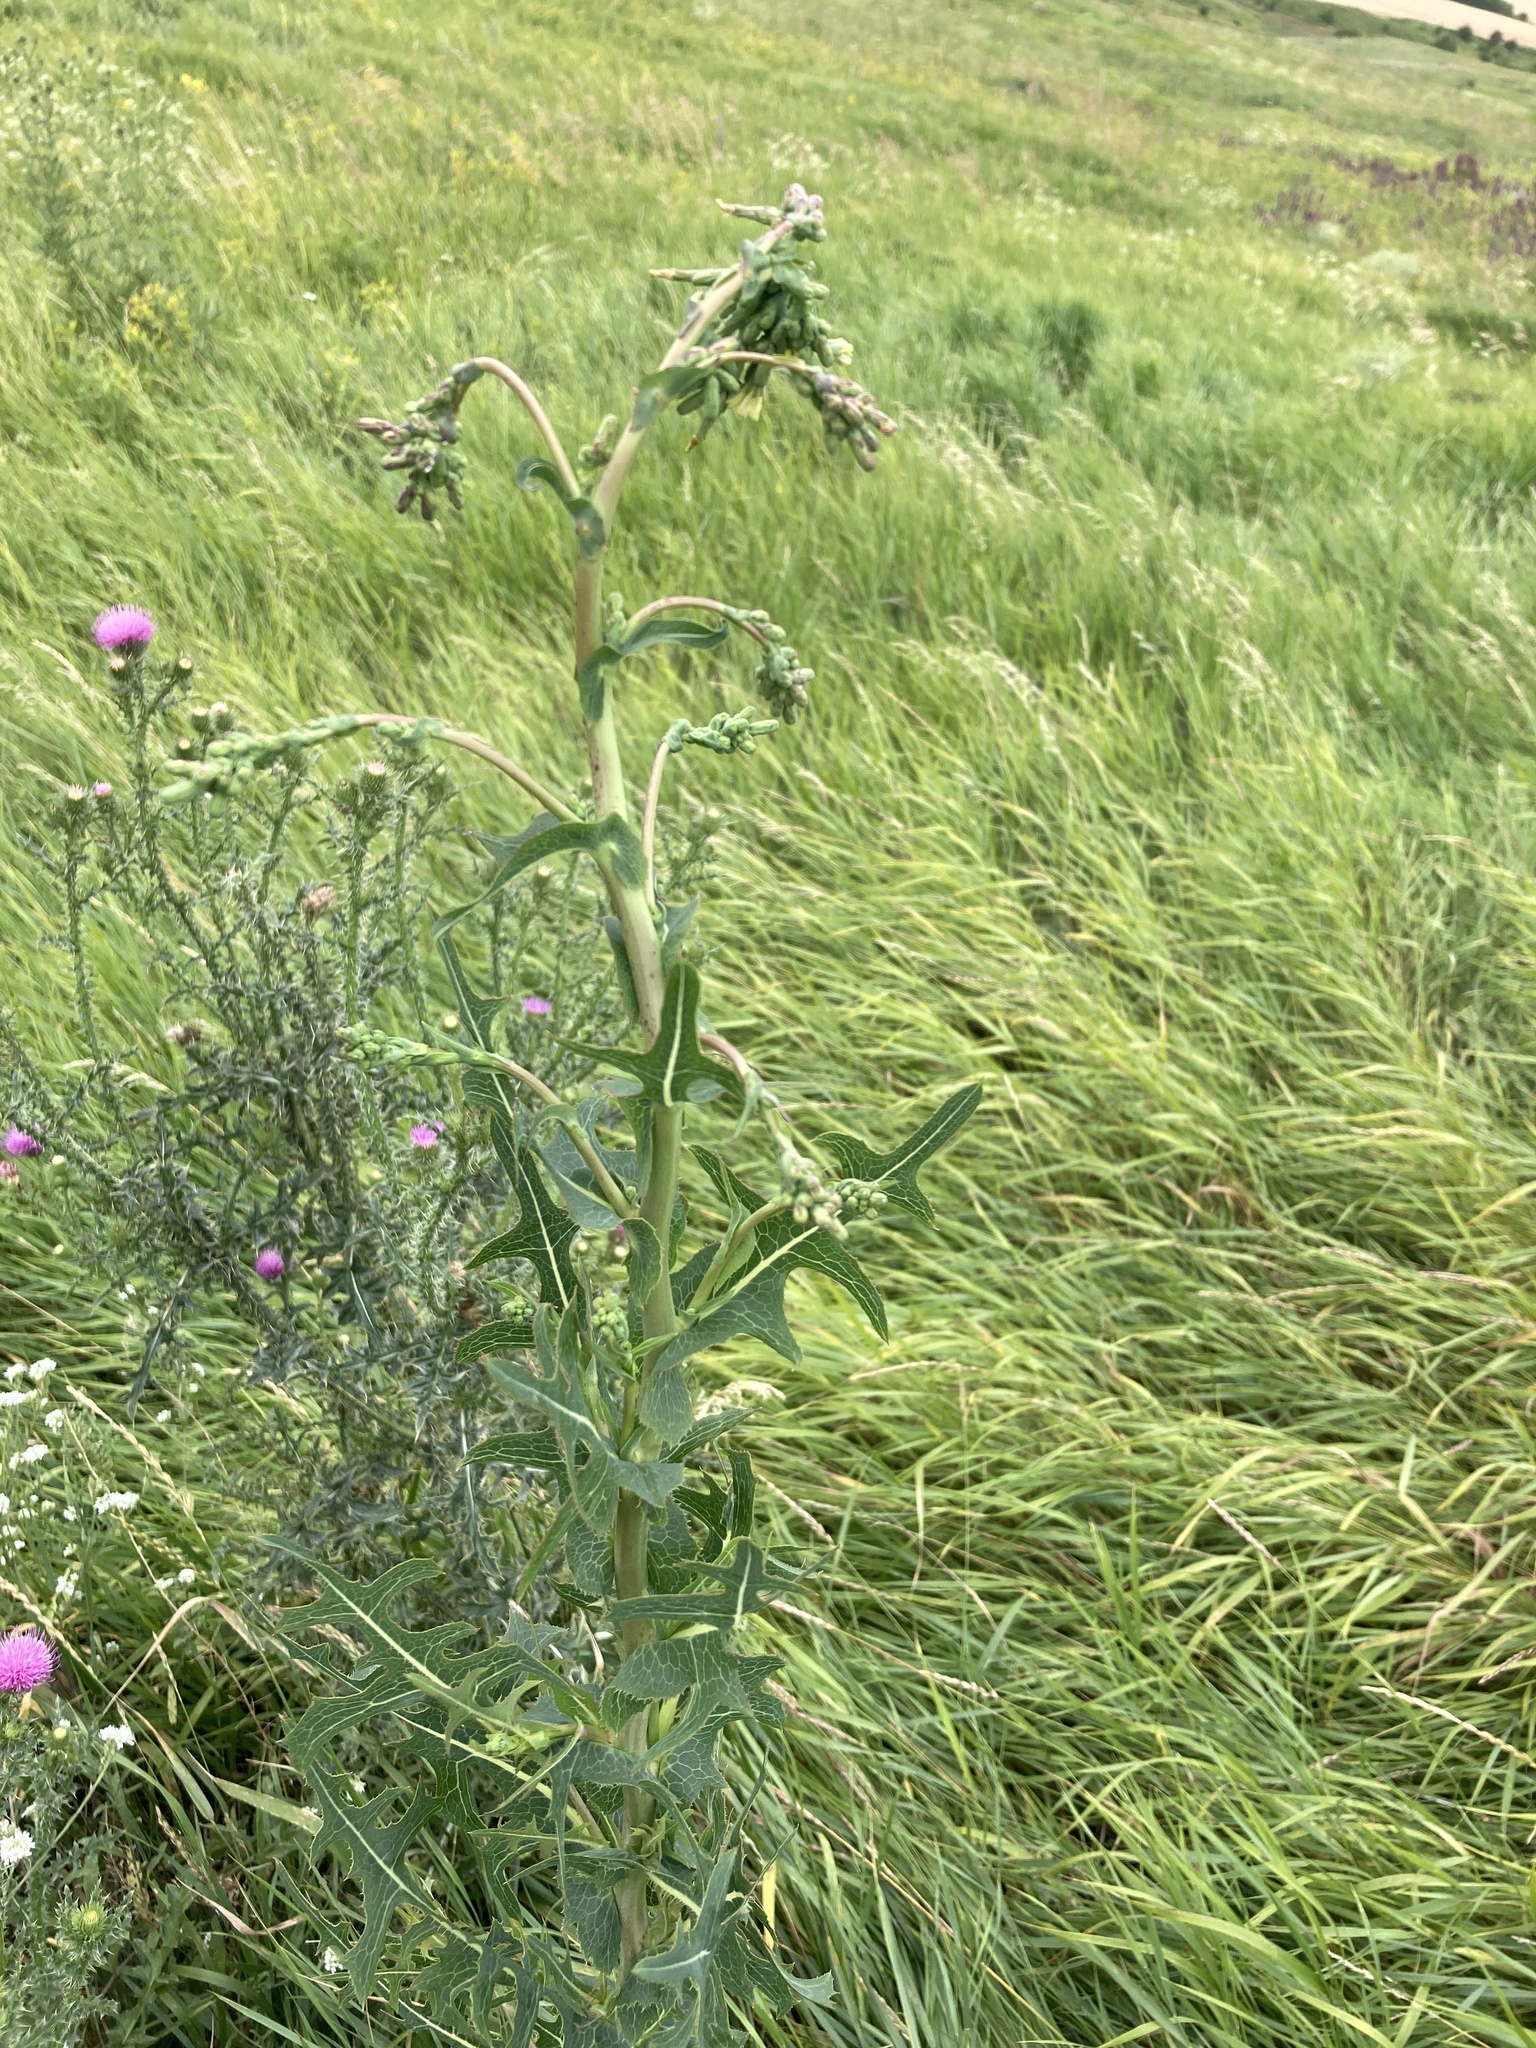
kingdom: Plantae
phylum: Tracheophyta
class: Magnoliopsida
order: Asterales
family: Asteraceae
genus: Lactuca
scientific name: Lactuca serriola
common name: Prickly lettuce
